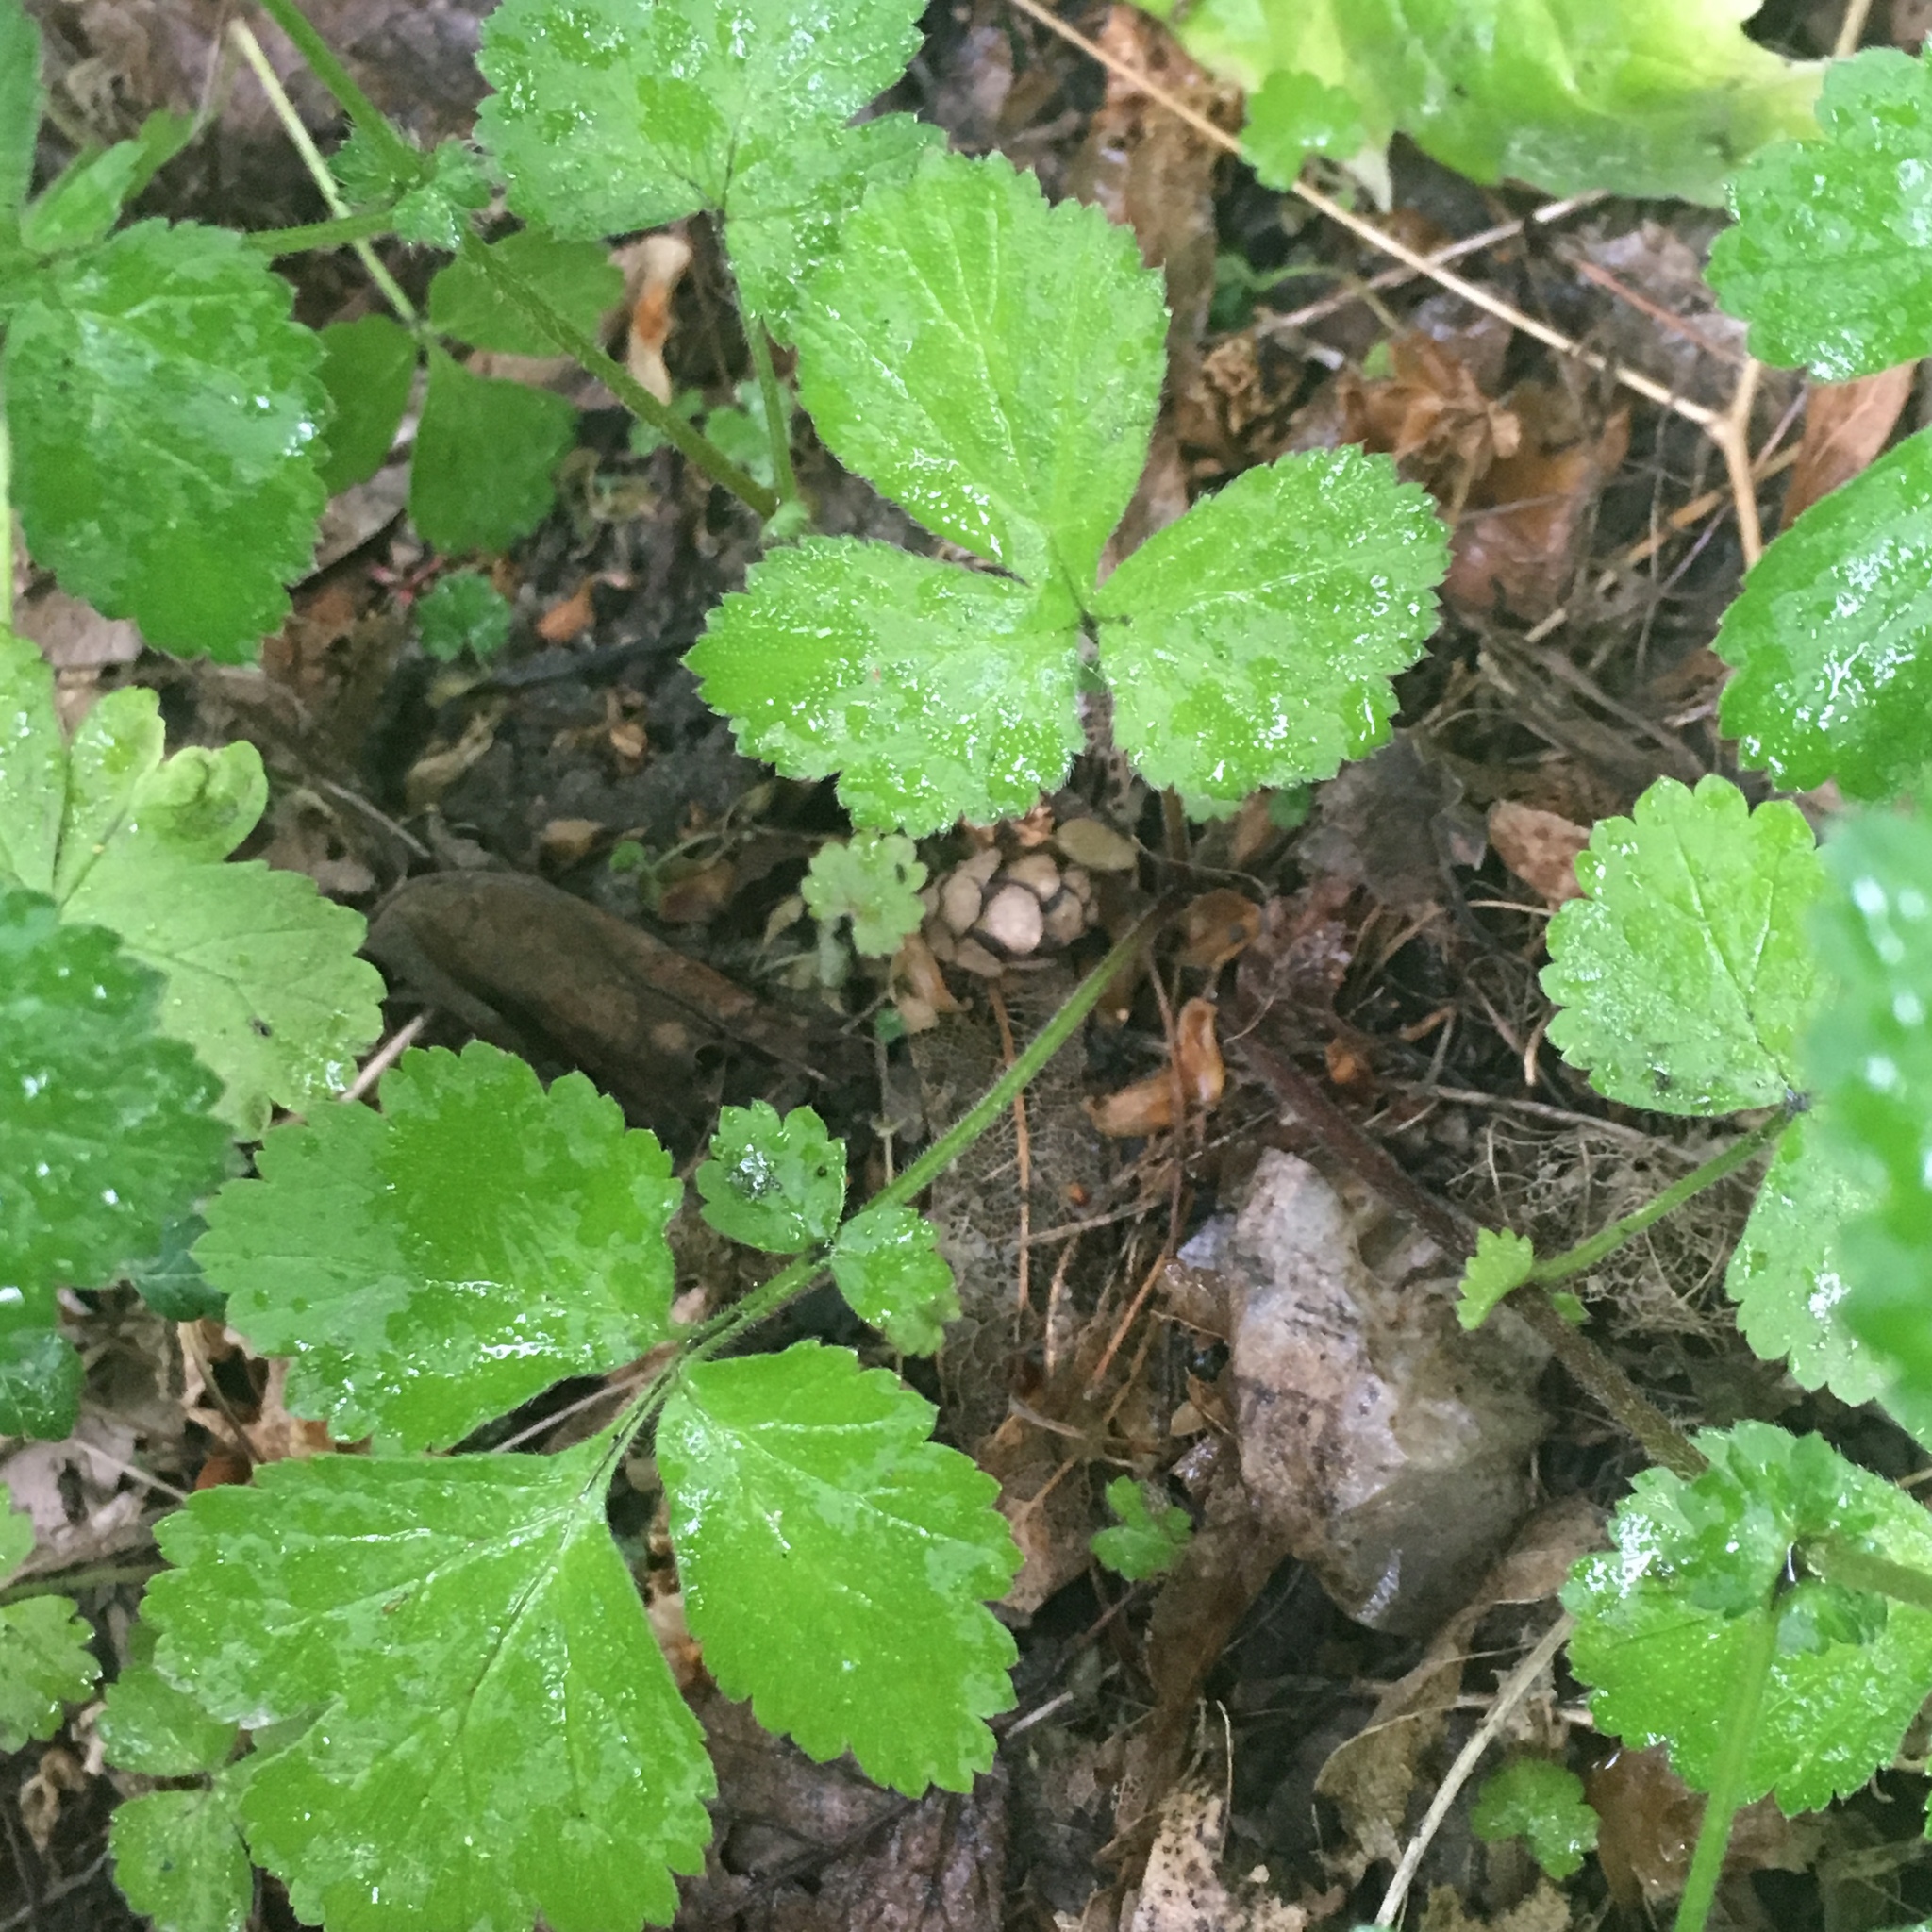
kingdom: Plantae
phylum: Tracheophyta
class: Magnoliopsida
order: Rosales
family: Rosaceae
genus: Geum
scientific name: Geum urbanum
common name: Wood avens
